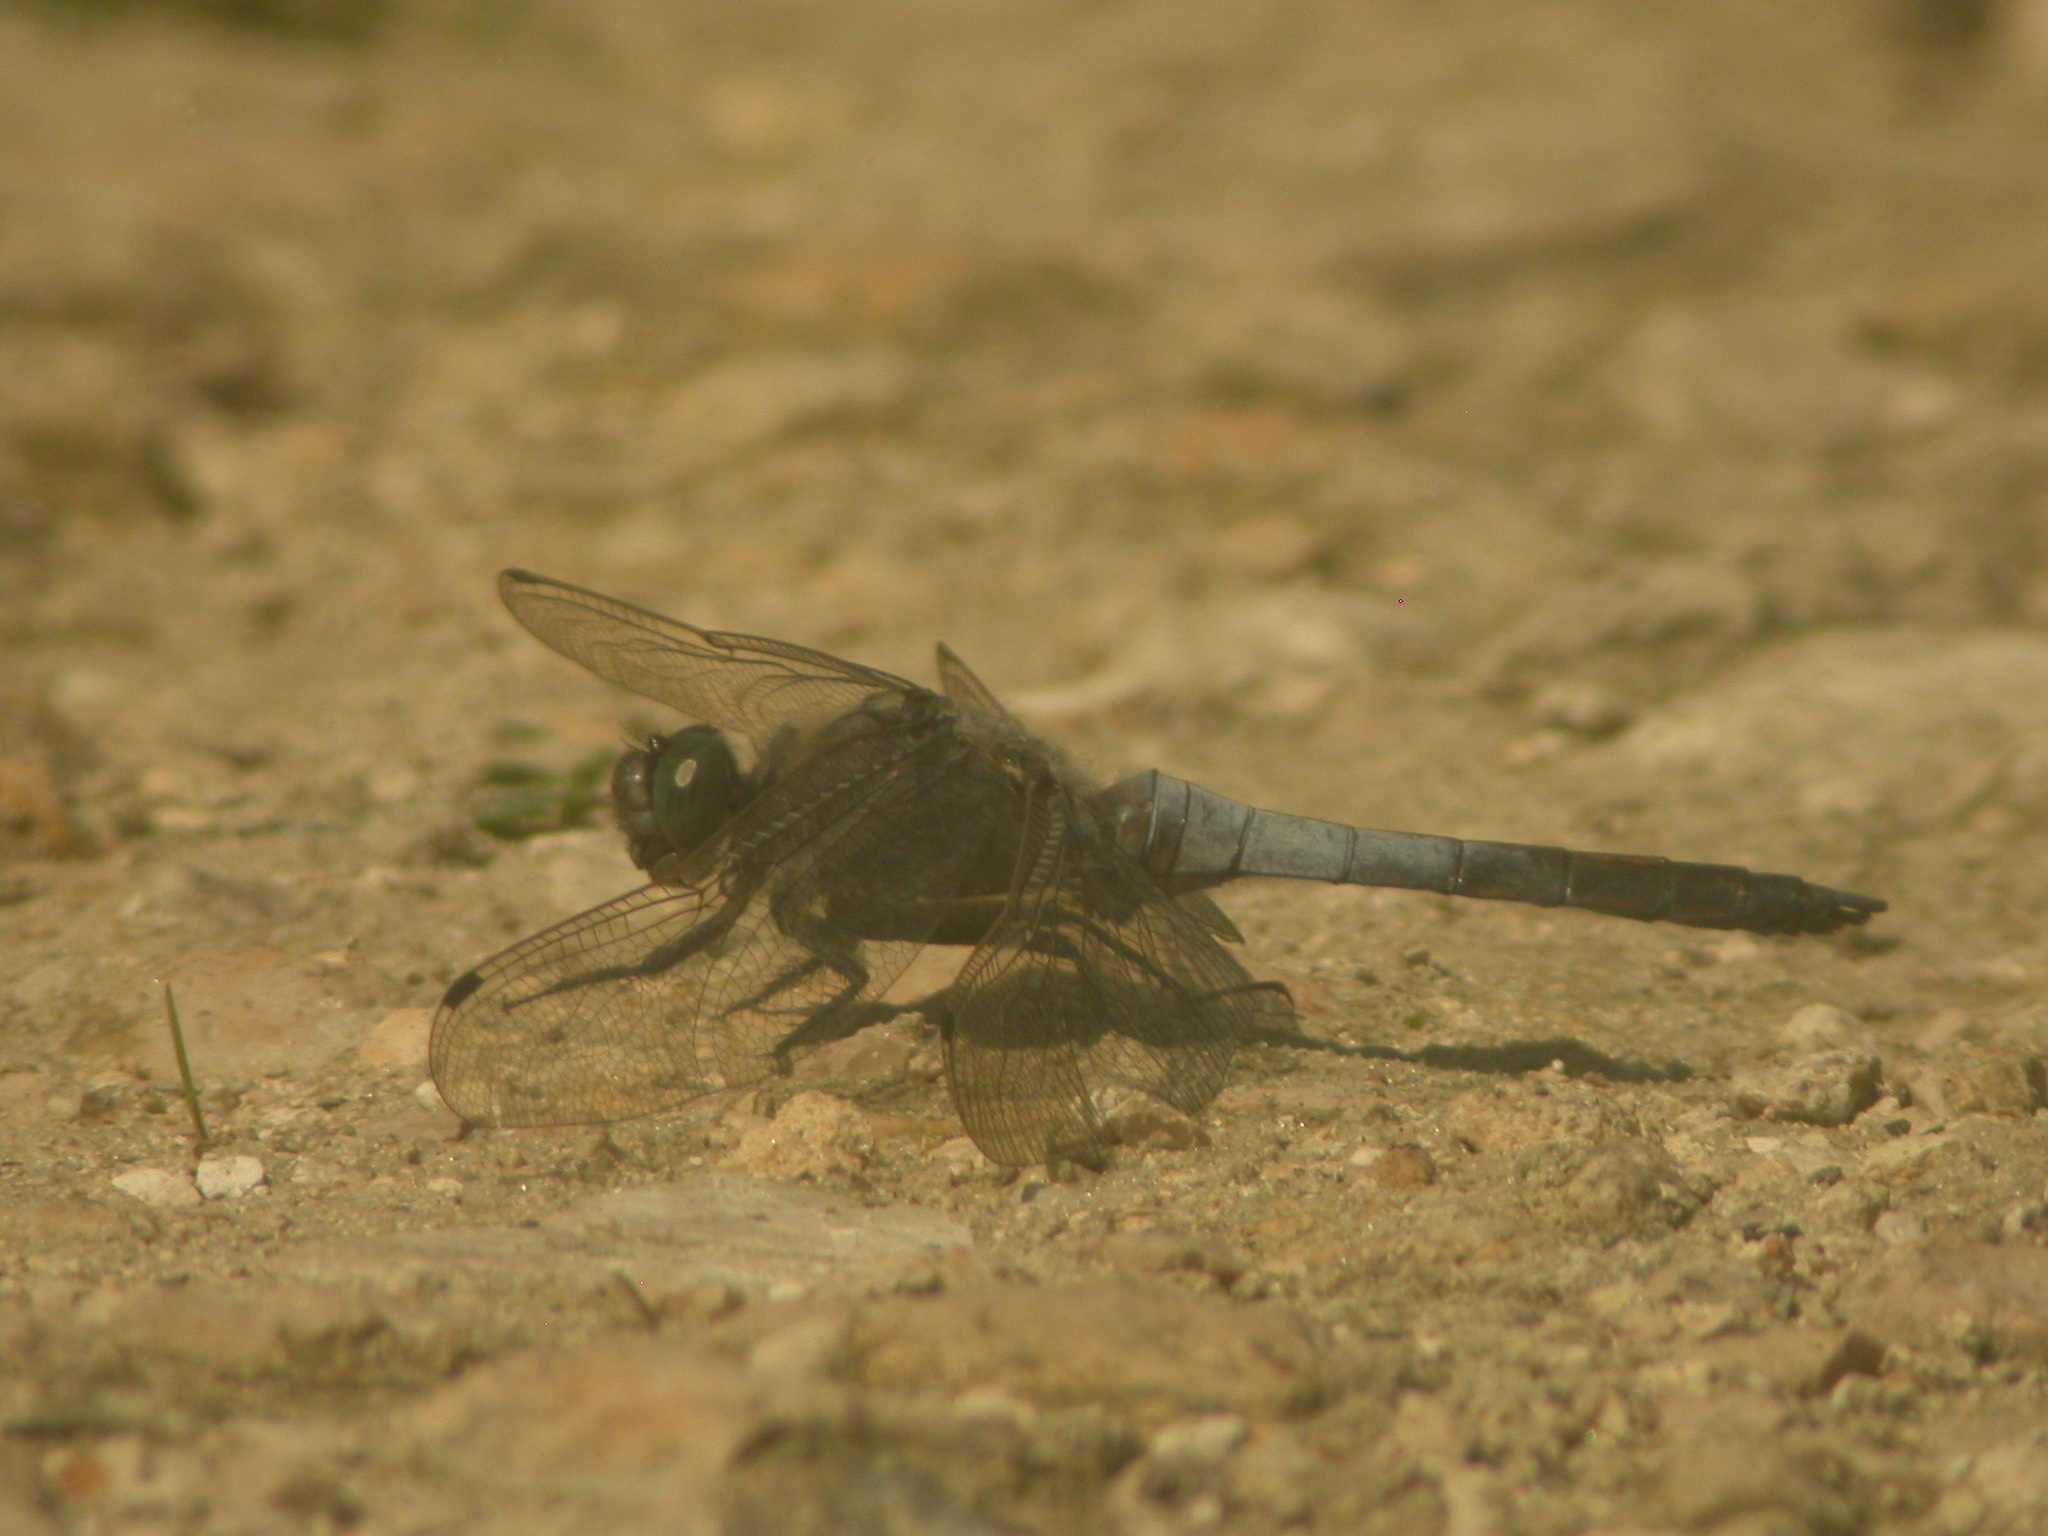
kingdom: Animalia
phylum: Arthropoda
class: Insecta
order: Odonata
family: Libellulidae
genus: Orthetrum
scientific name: Orthetrum cancellatum
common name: Black-tailed skimmer
